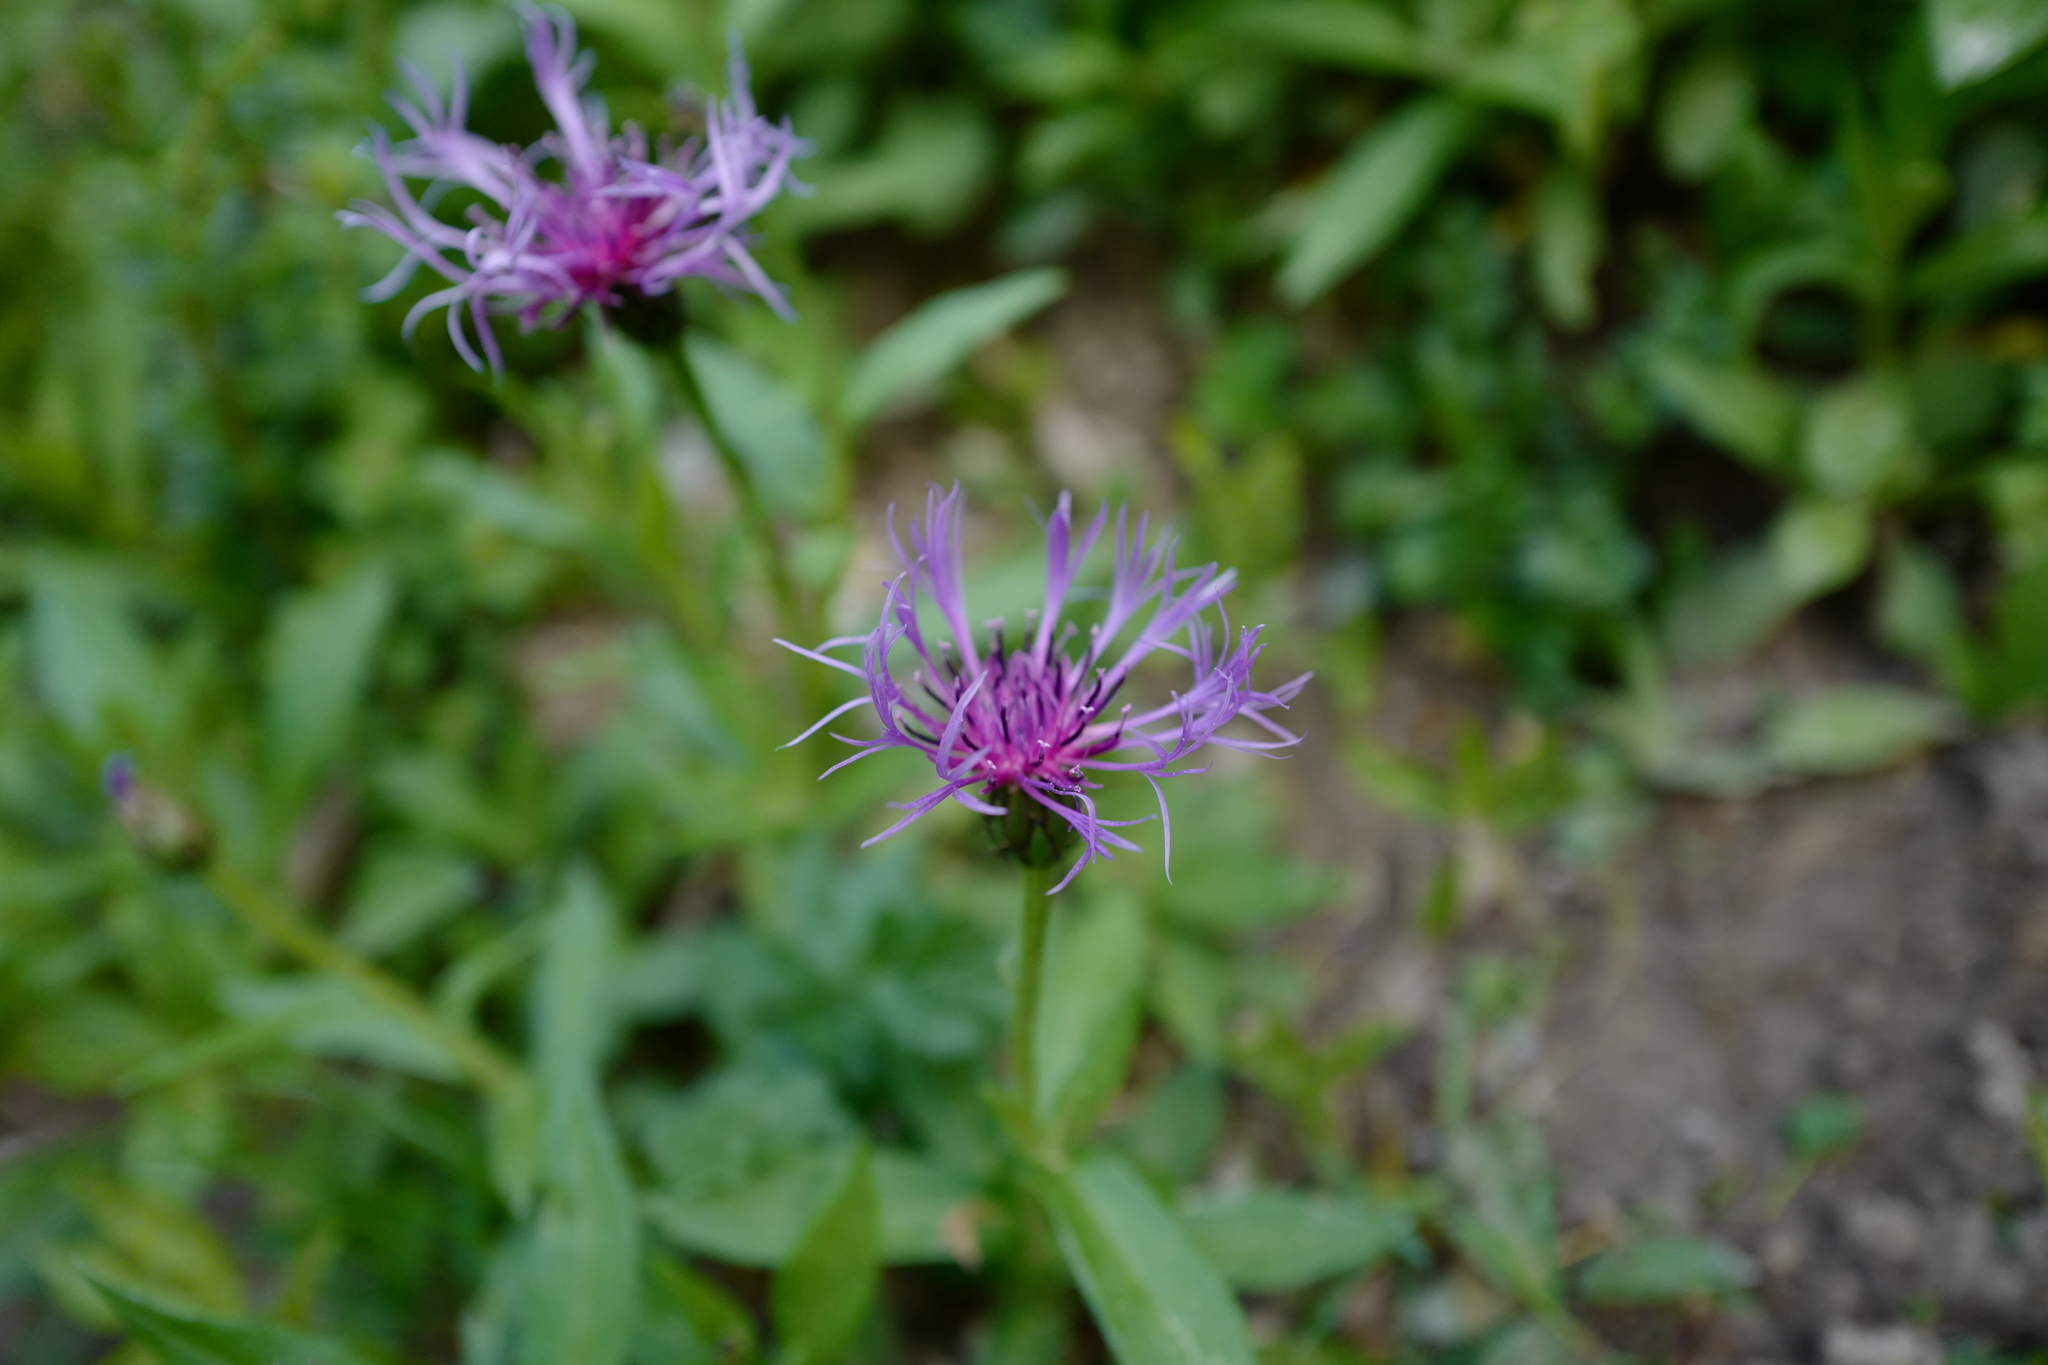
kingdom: Plantae
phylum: Tracheophyta
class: Magnoliopsida
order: Asterales
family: Asteraceae
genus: Centaurea
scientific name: Centaurea montana
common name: Perennial cornflower
